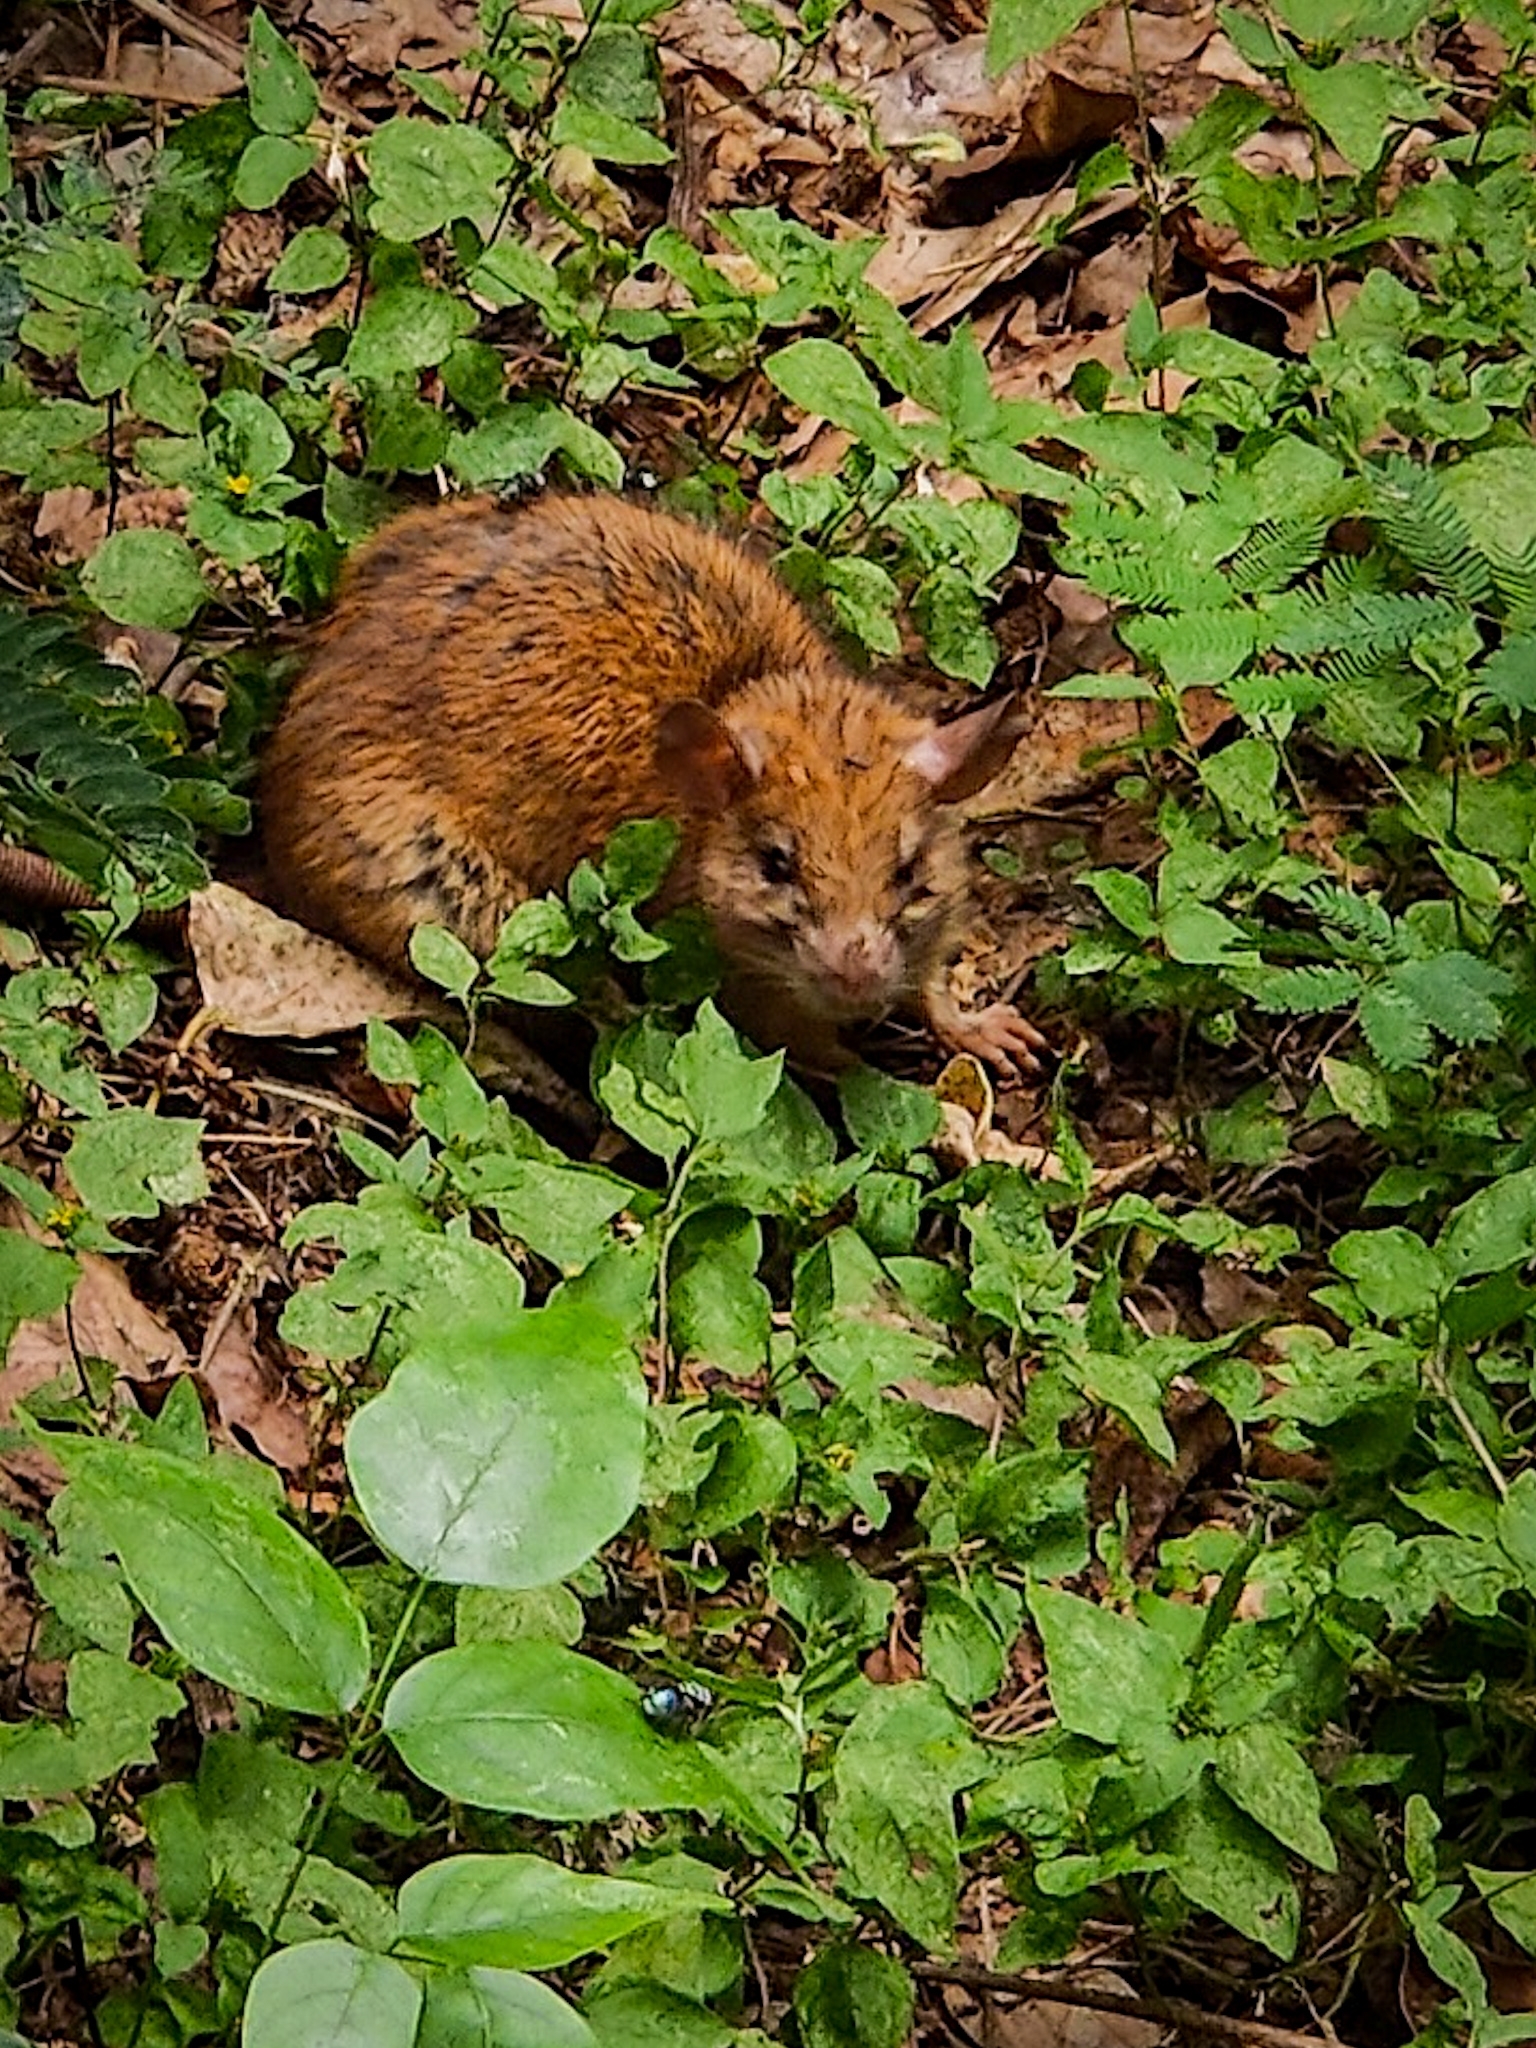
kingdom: Animalia
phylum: Chordata
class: Mammalia
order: Rodentia
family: Muridae
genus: Golunda
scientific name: Golunda ellioti
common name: Indian bush rat
